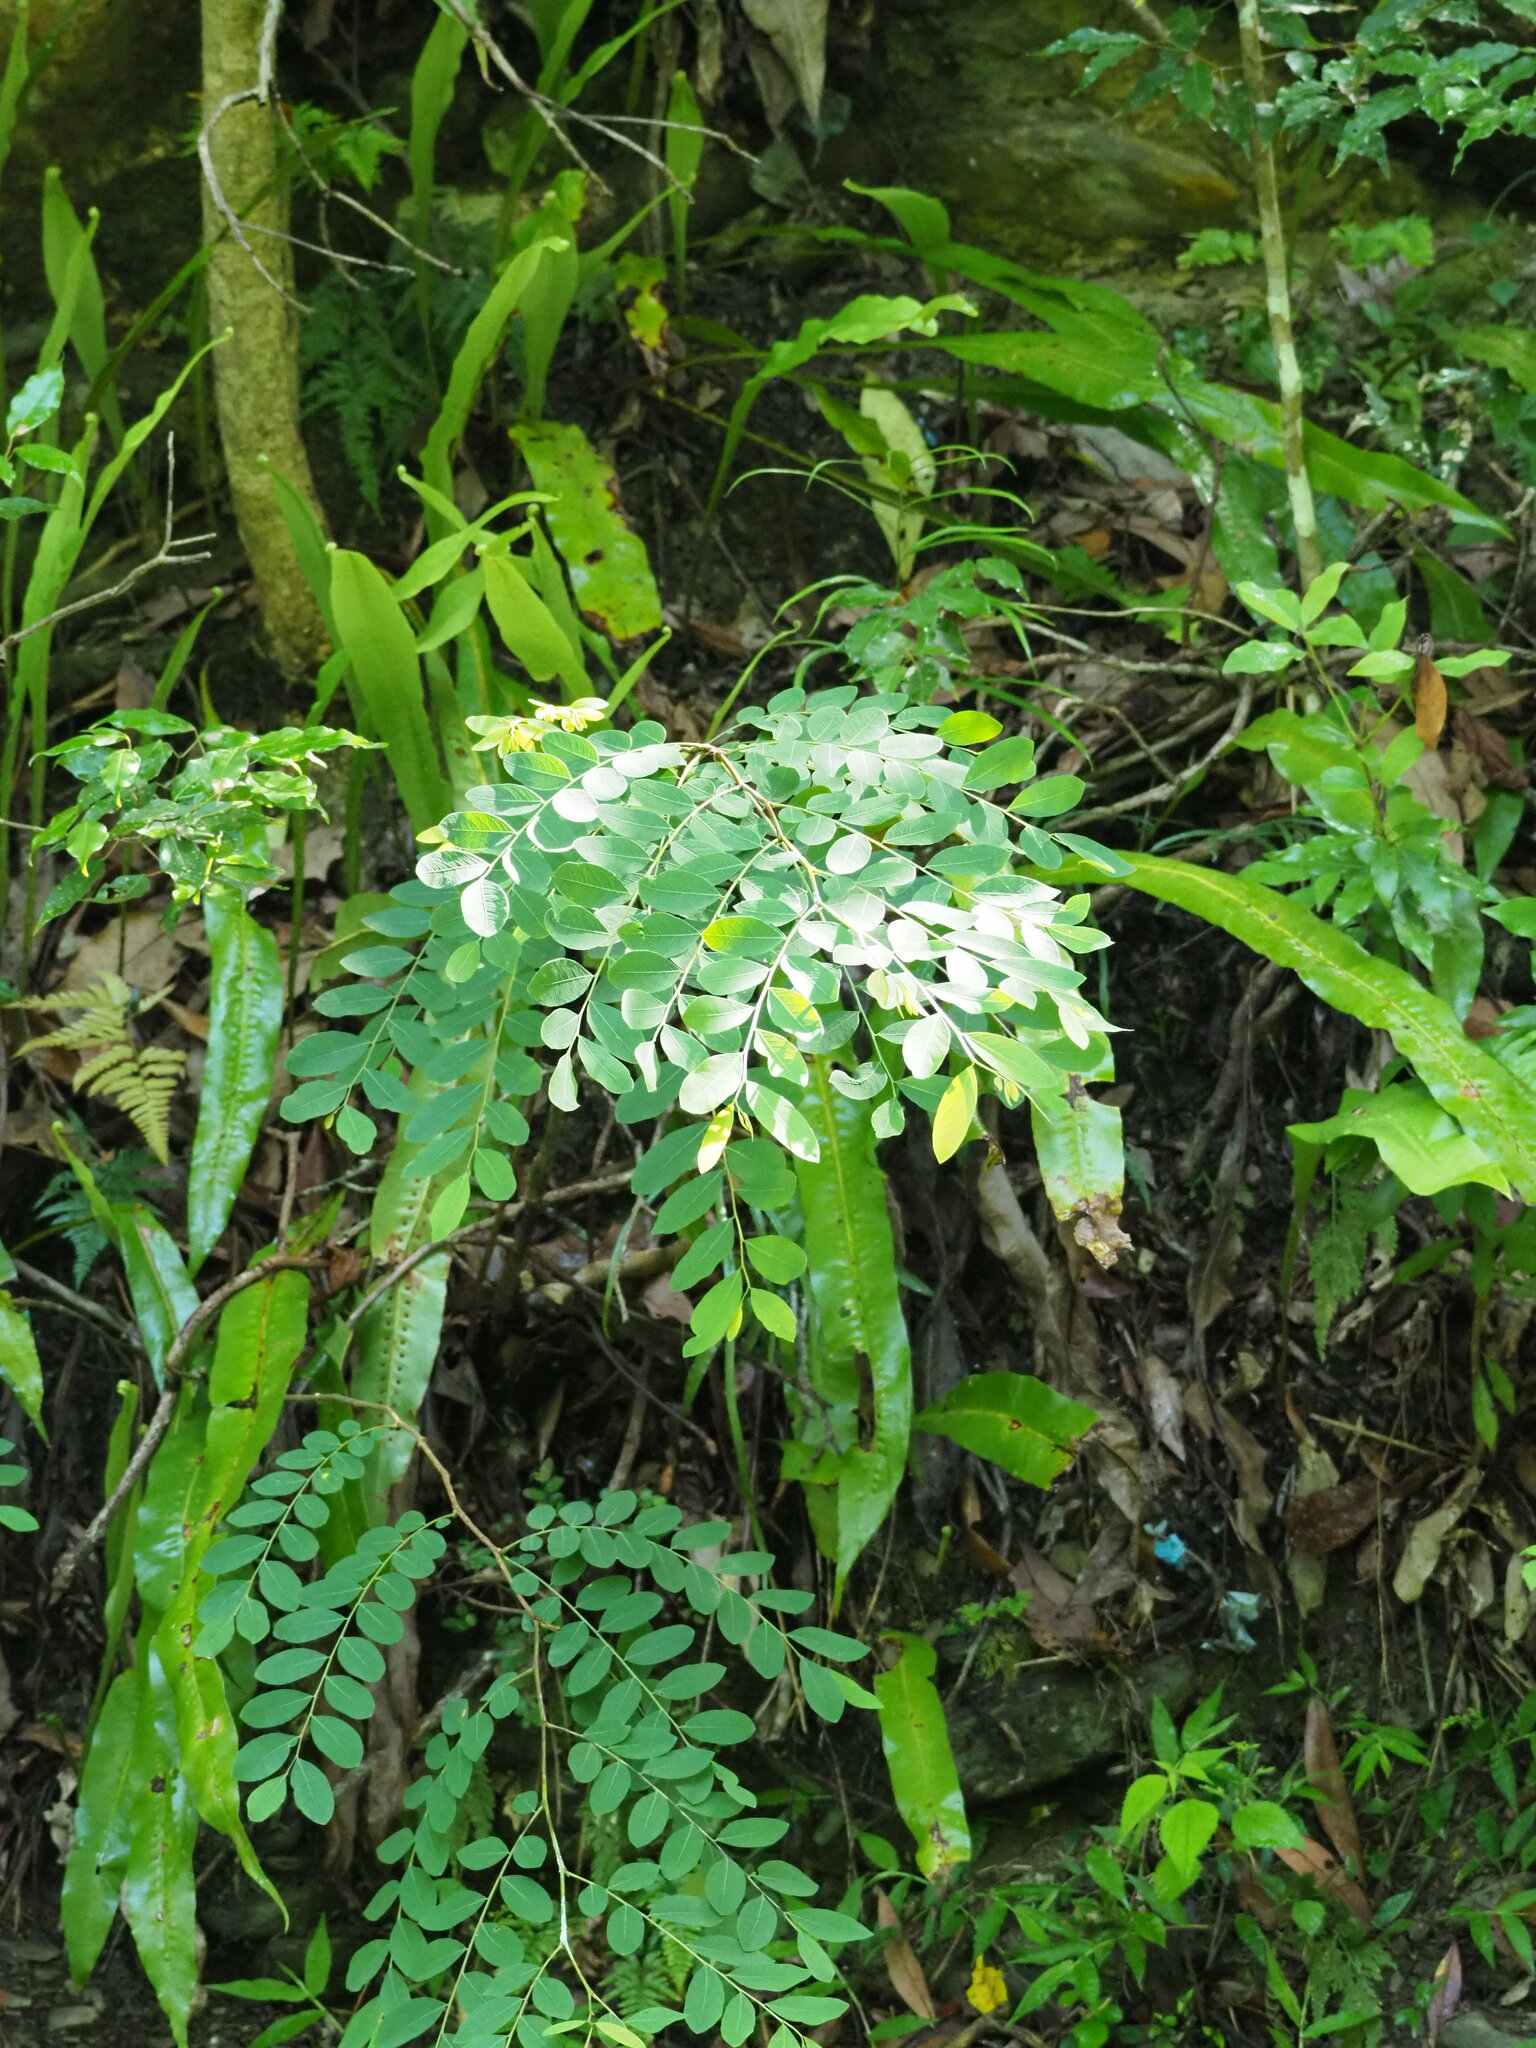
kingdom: Plantae
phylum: Tracheophyta
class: Magnoliopsida
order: Malpighiales
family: Phyllanthaceae
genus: Breynia
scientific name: Breynia vitis-idaea
